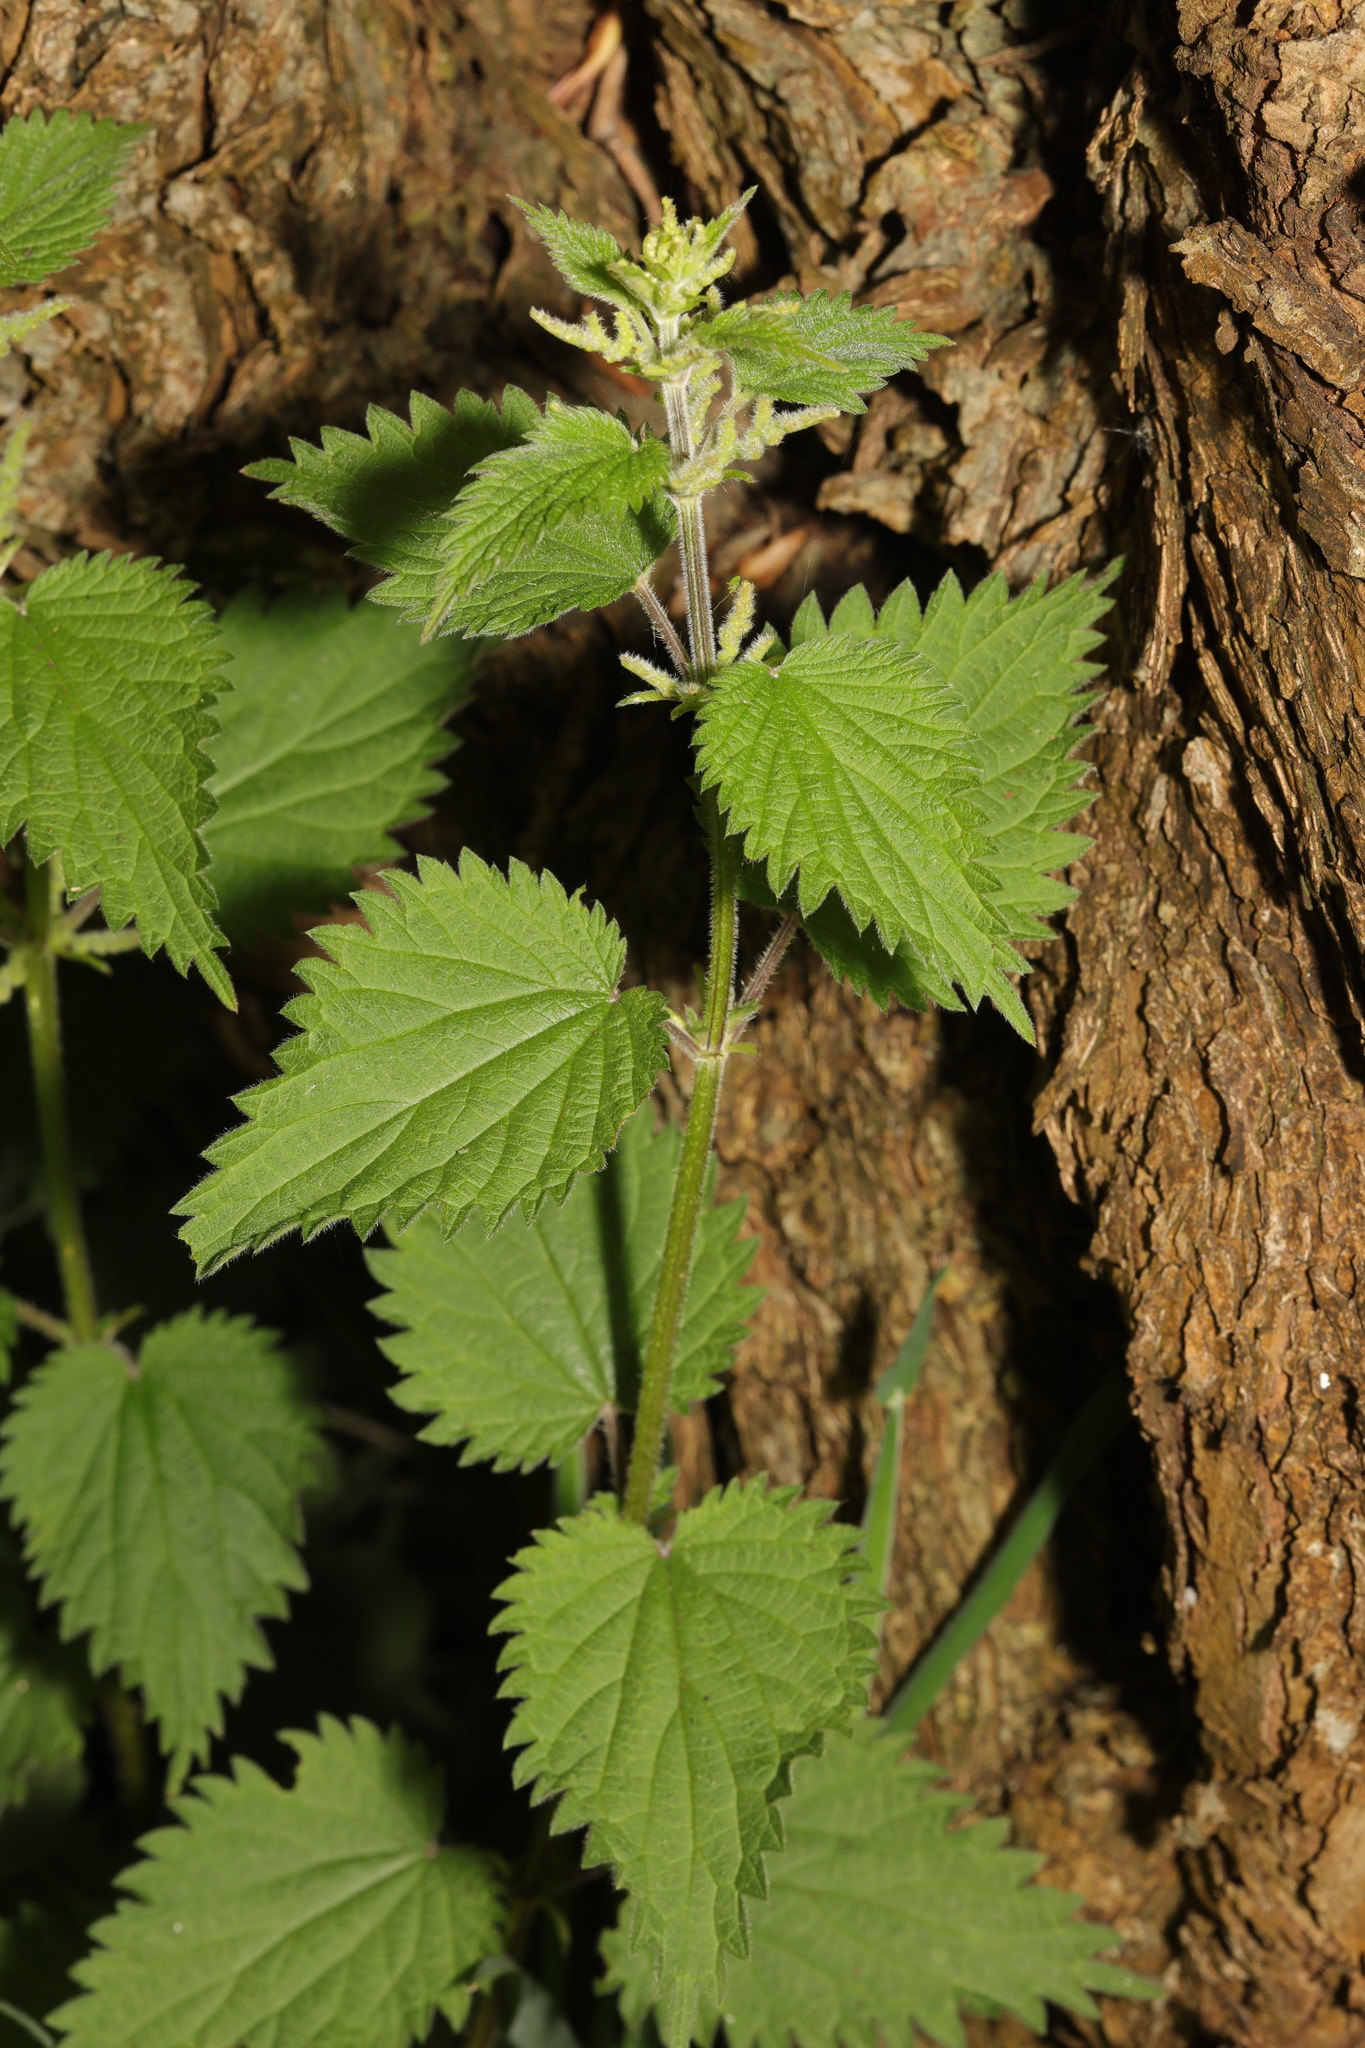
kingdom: Plantae
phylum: Tracheophyta
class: Magnoliopsida
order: Rosales
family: Urticaceae
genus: Urtica
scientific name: Urtica dioica
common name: Common nettle
